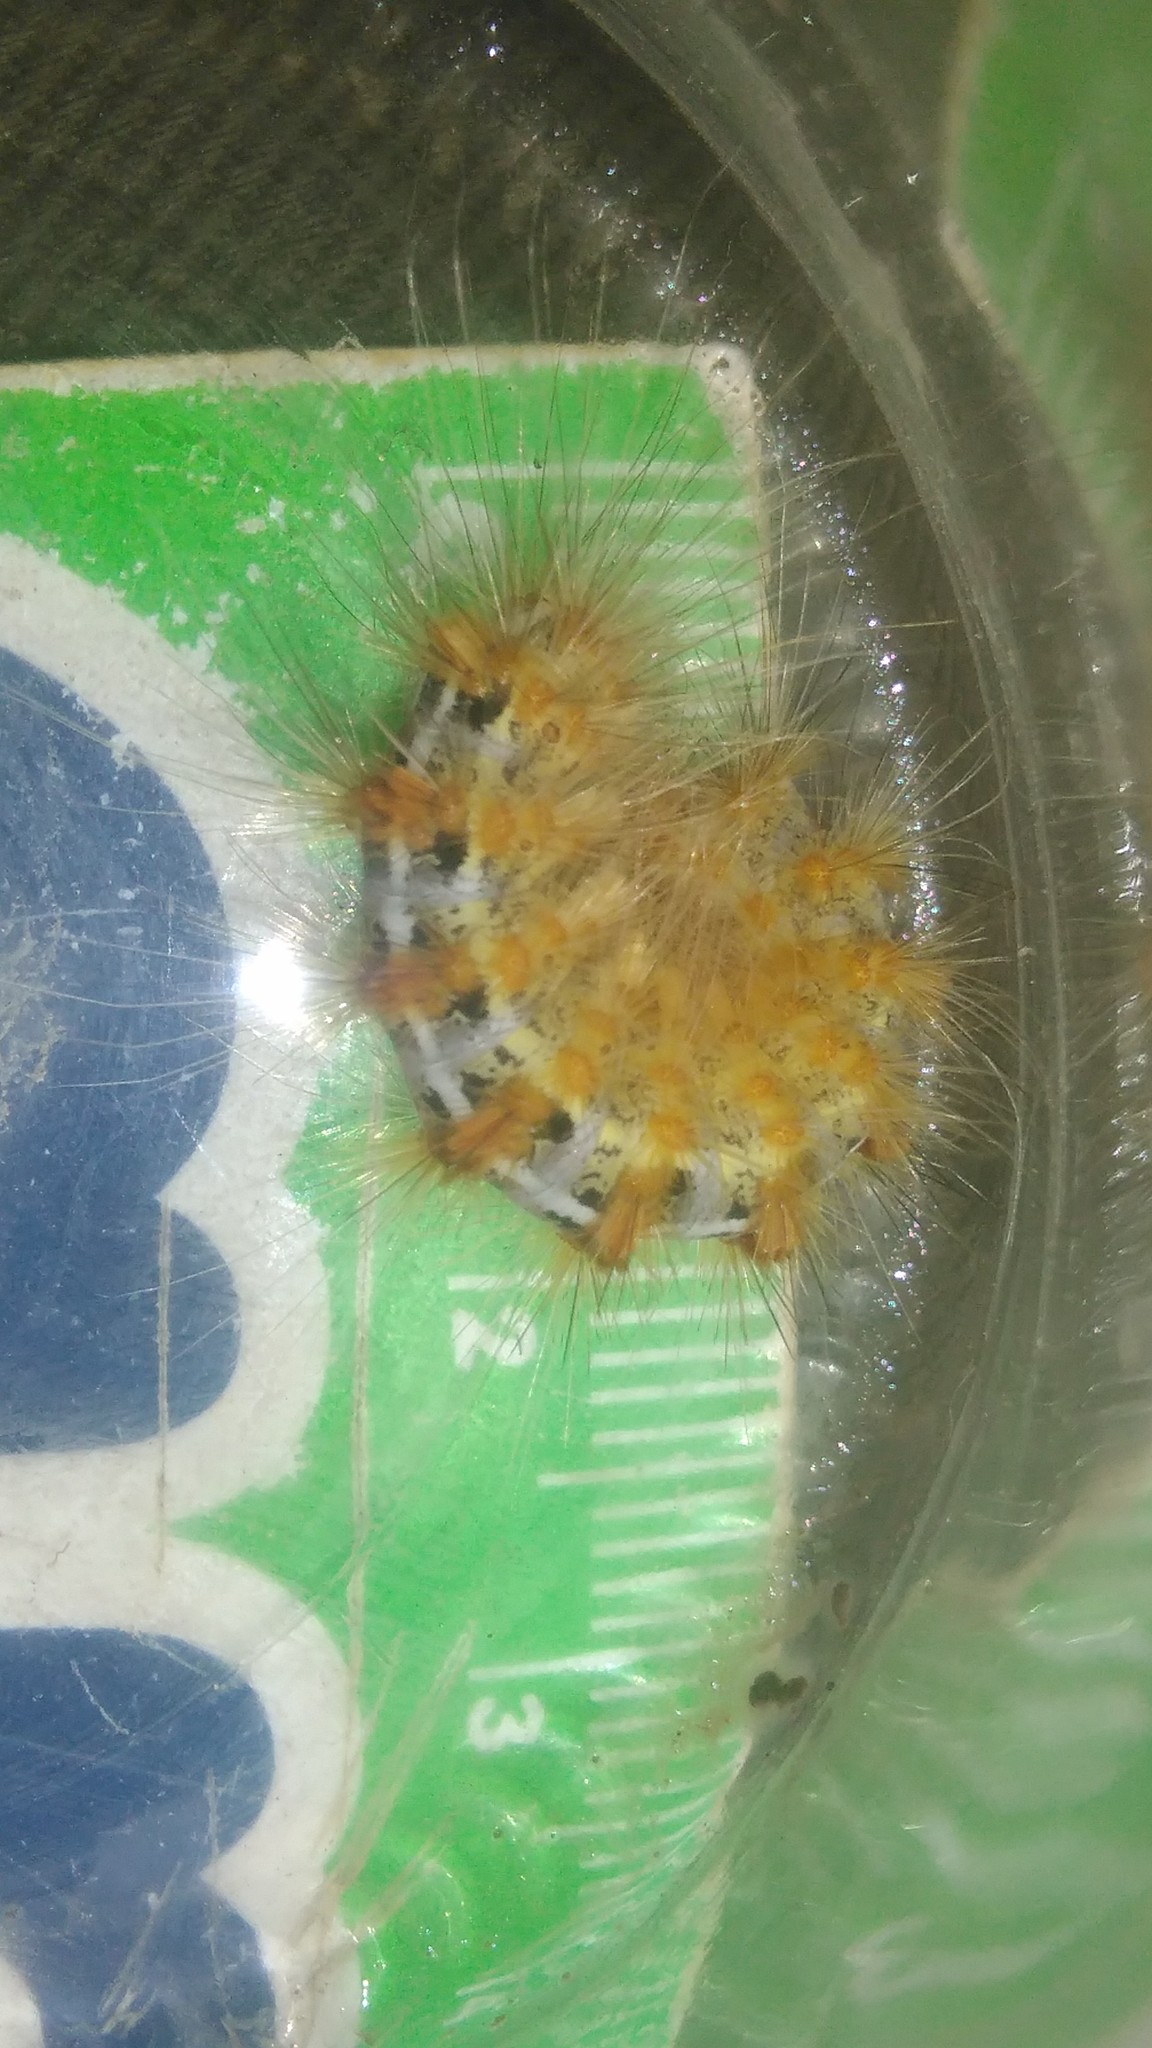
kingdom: Animalia
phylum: Arthropoda
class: Insecta
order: Lepidoptera
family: Erebidae
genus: Paracles
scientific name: Paracles deserticola
